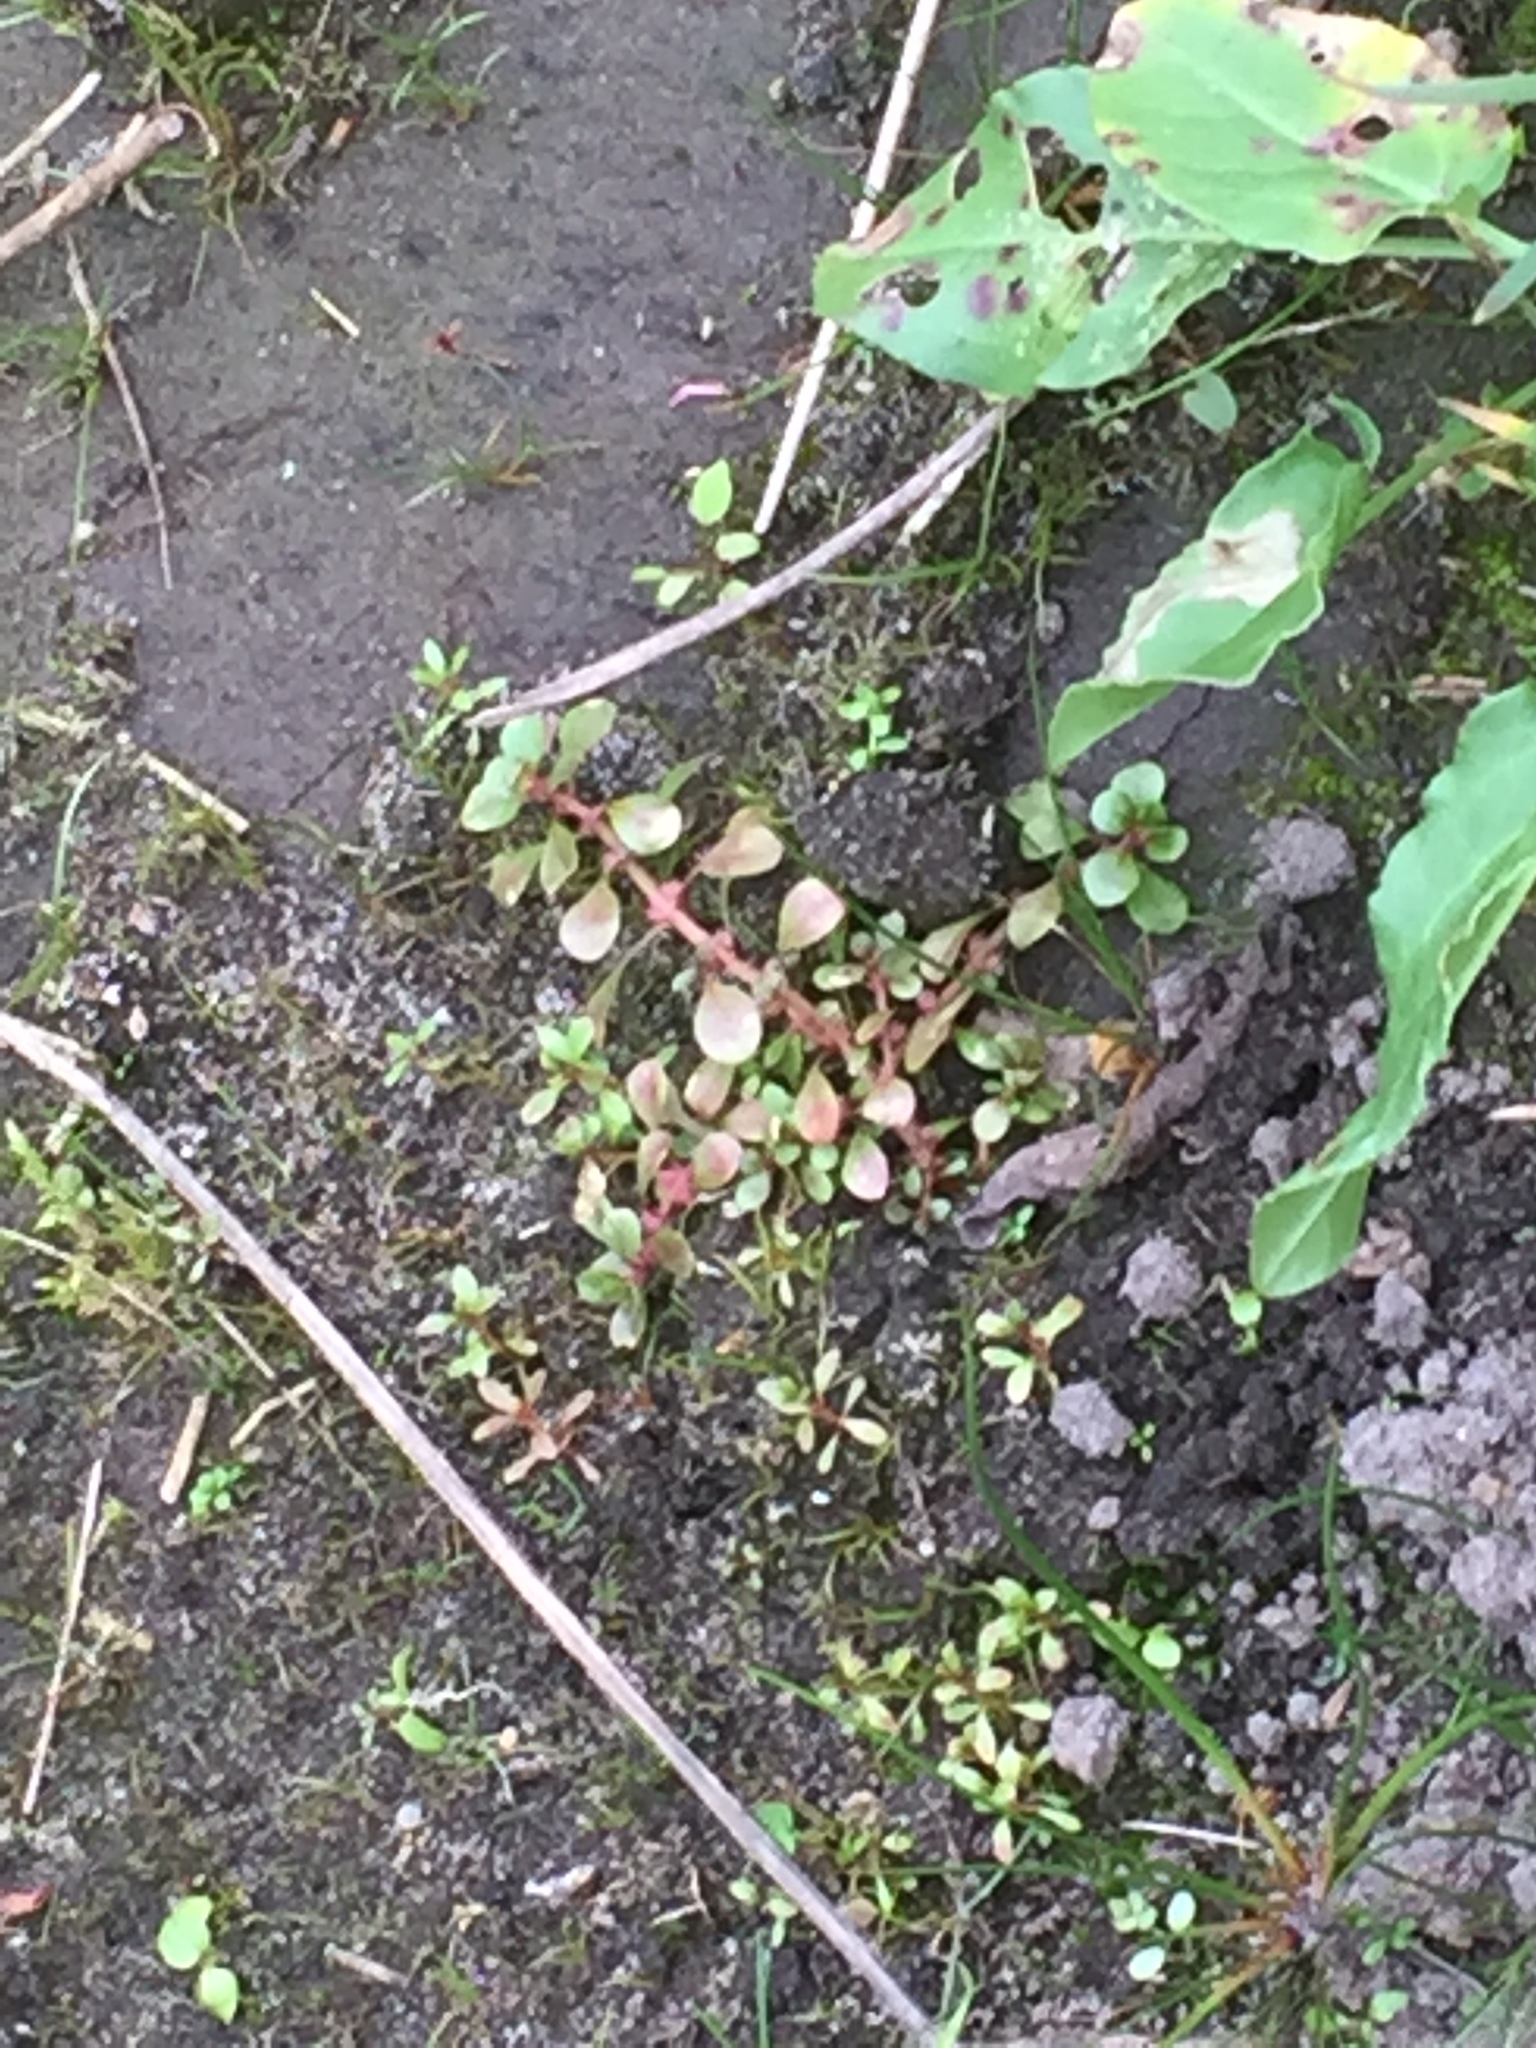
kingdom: Plantae
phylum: Tracheophyta
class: Magnoliopsida
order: Myrtales
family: Lythraceae
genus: Lythrum
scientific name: Lythrum portula
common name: Water purslane
